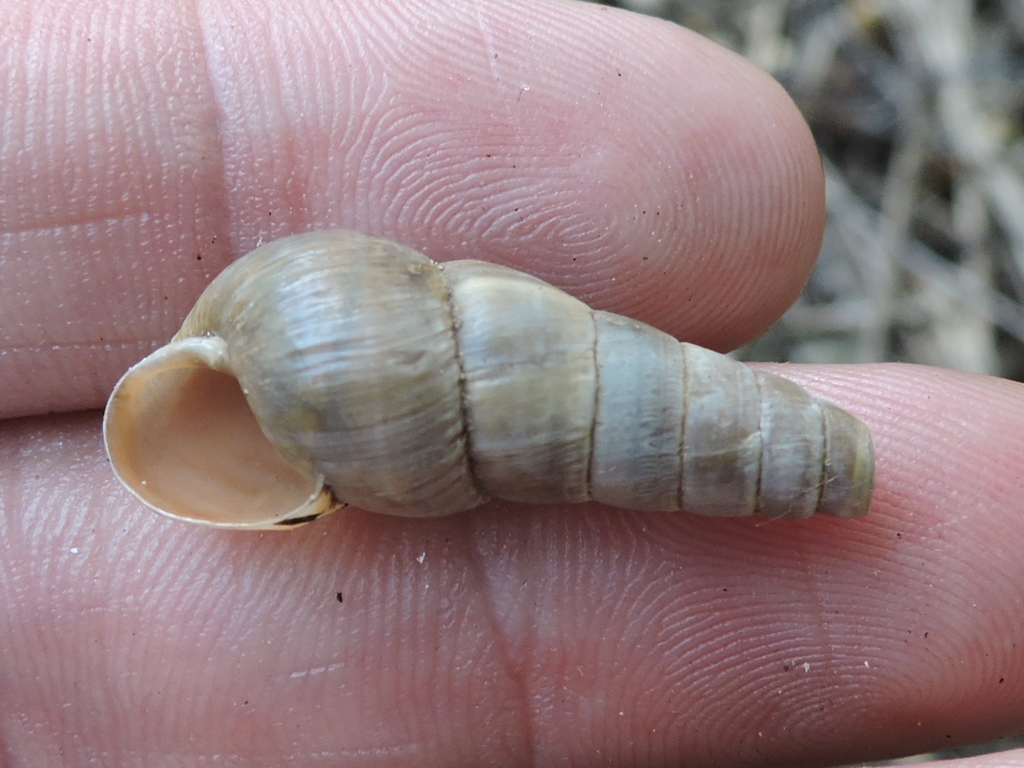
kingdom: Animalia
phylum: Mollusca
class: Gastropoda
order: Stylommatophora
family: Achatinidae
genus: Rumina
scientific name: Rumina decollata
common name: Decollate snail
